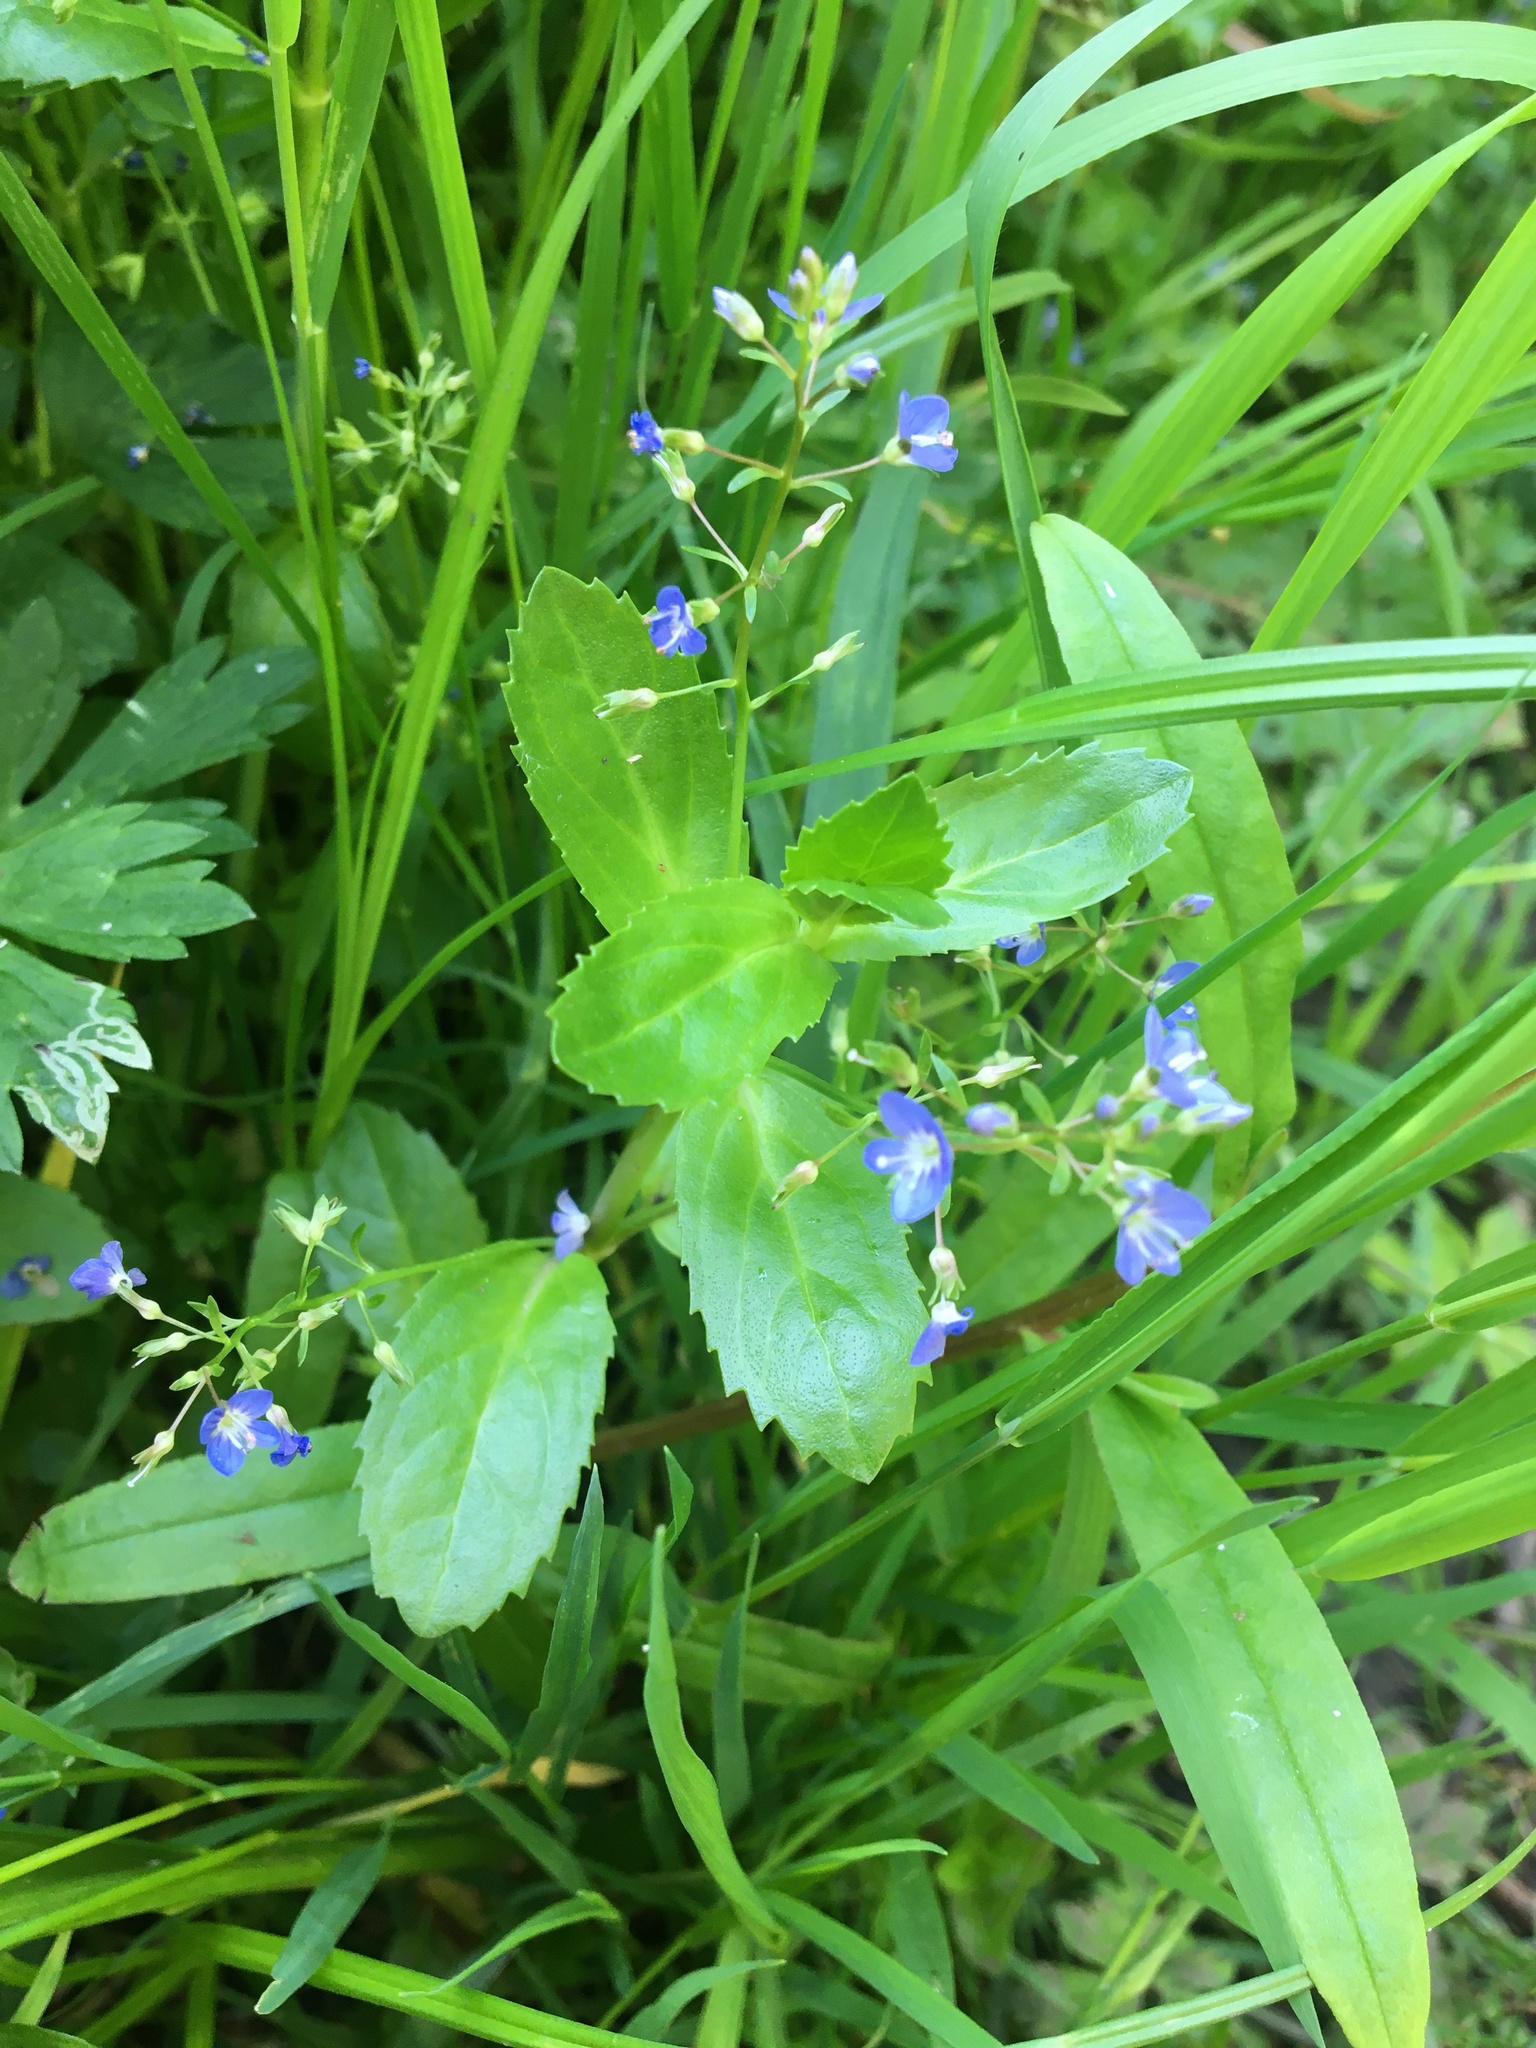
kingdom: Plantae
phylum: Tracheophyta
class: Magnoliopsida
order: Lamiales
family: Plantaginaceae
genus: Veronica
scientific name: Veronica beccabunga
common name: Brooklime
